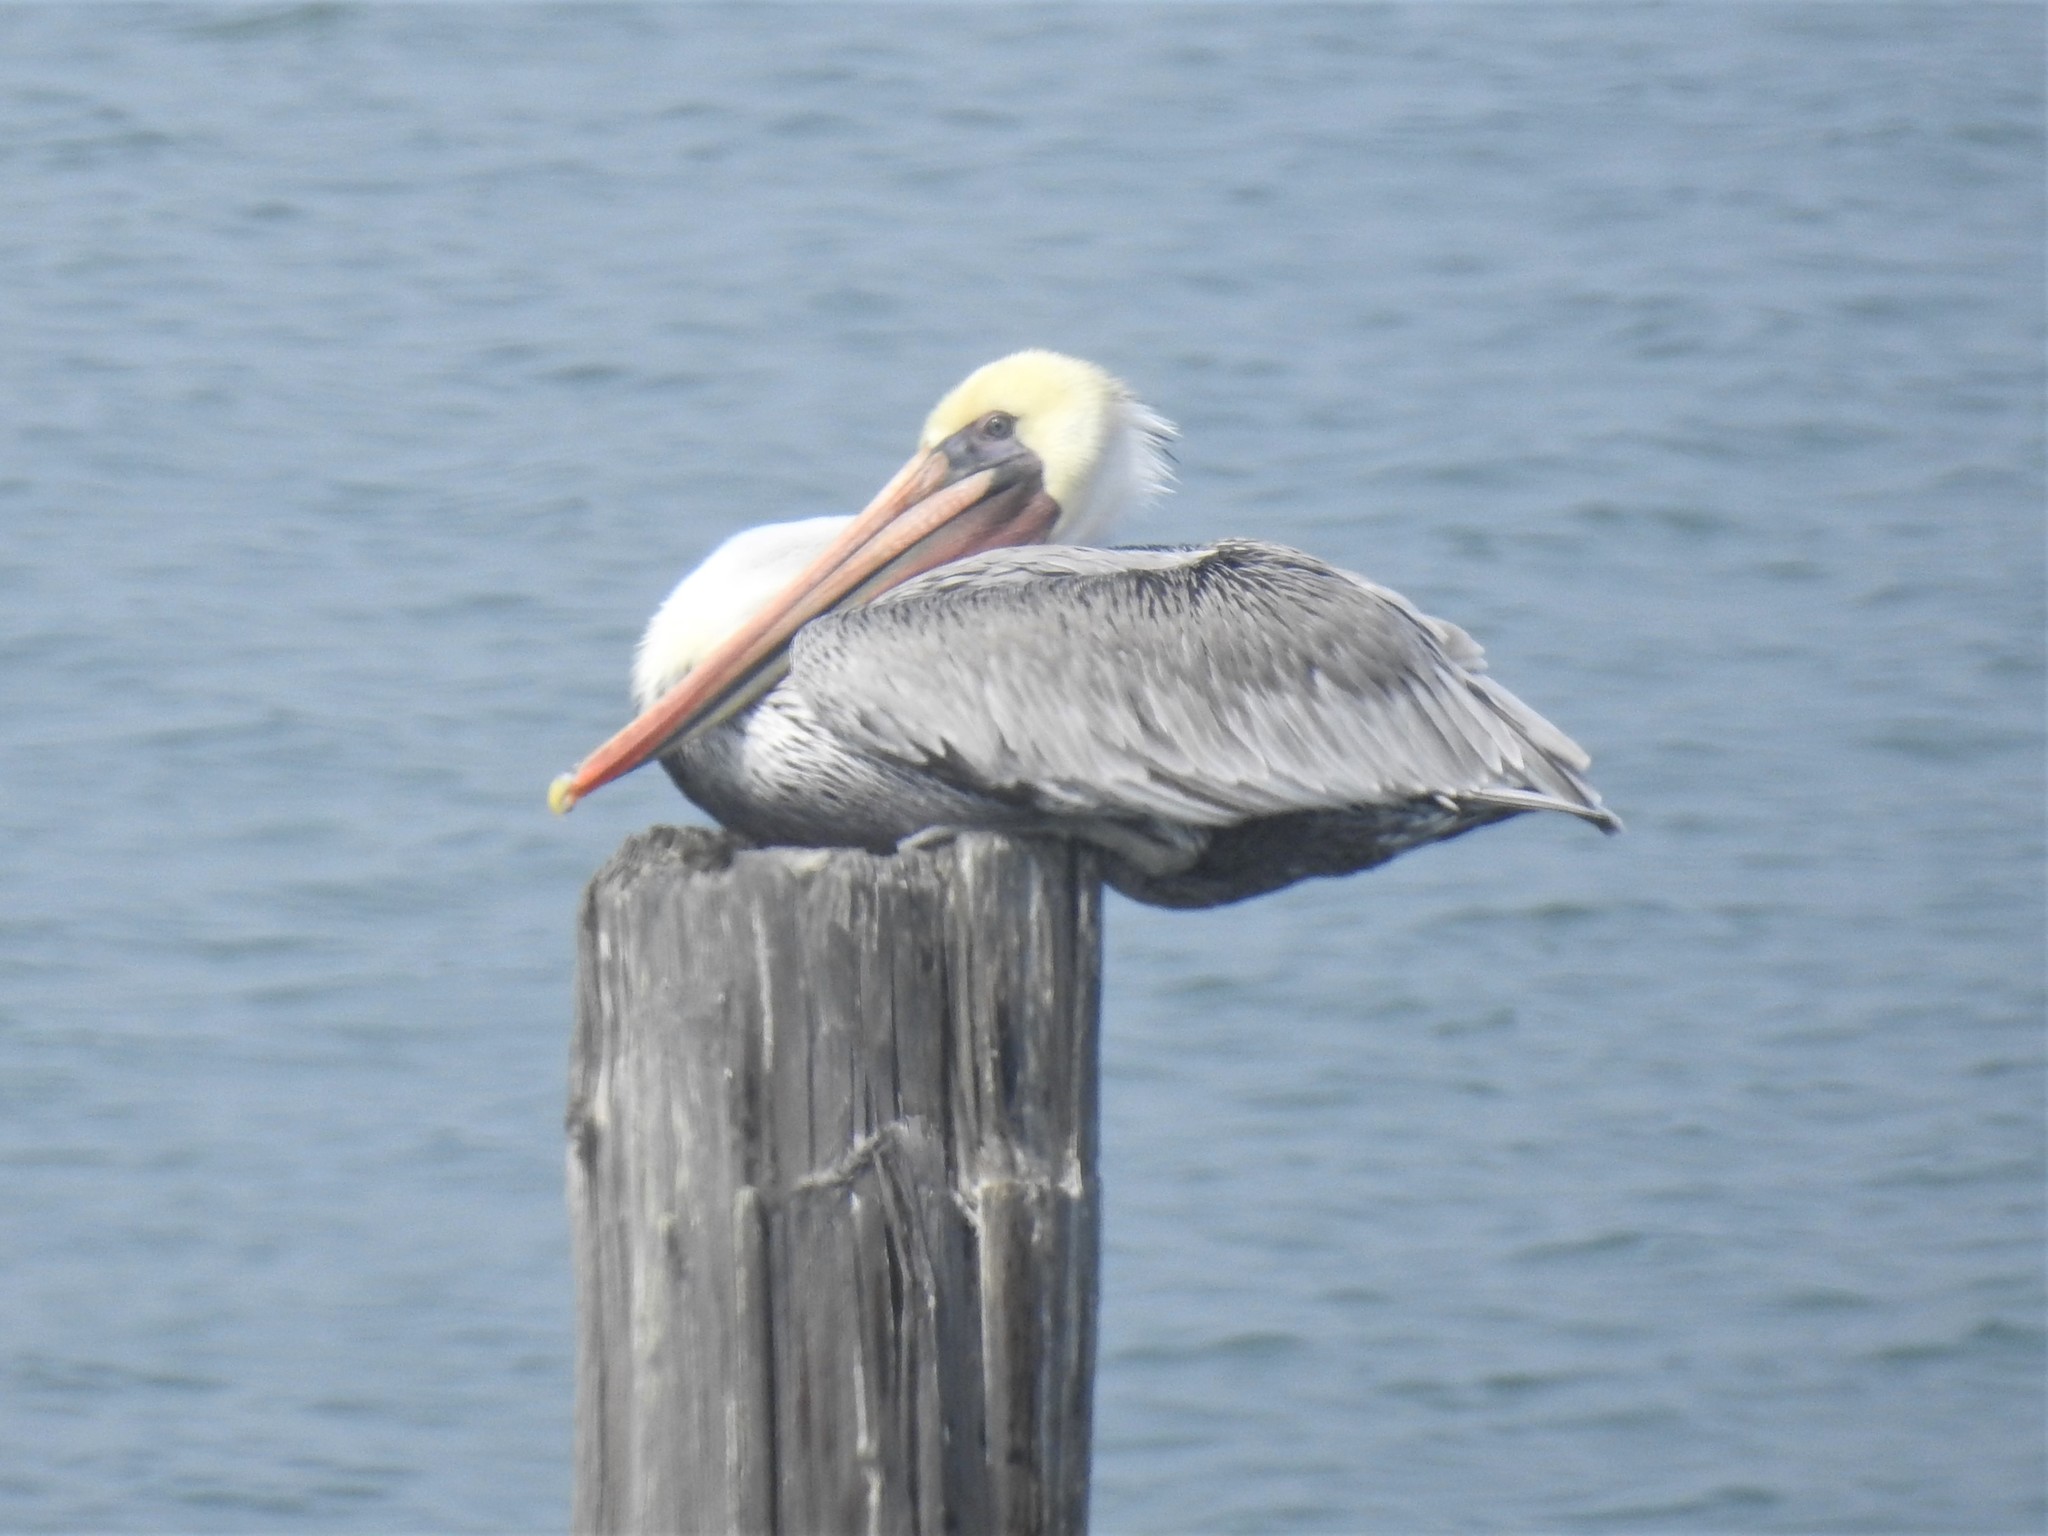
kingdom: Animalia
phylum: Chordata
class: Aves
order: Pelecaniformes
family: Pelecanidae
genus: Pelecanus
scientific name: Pelecanus occidentalis
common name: Brown pelican
